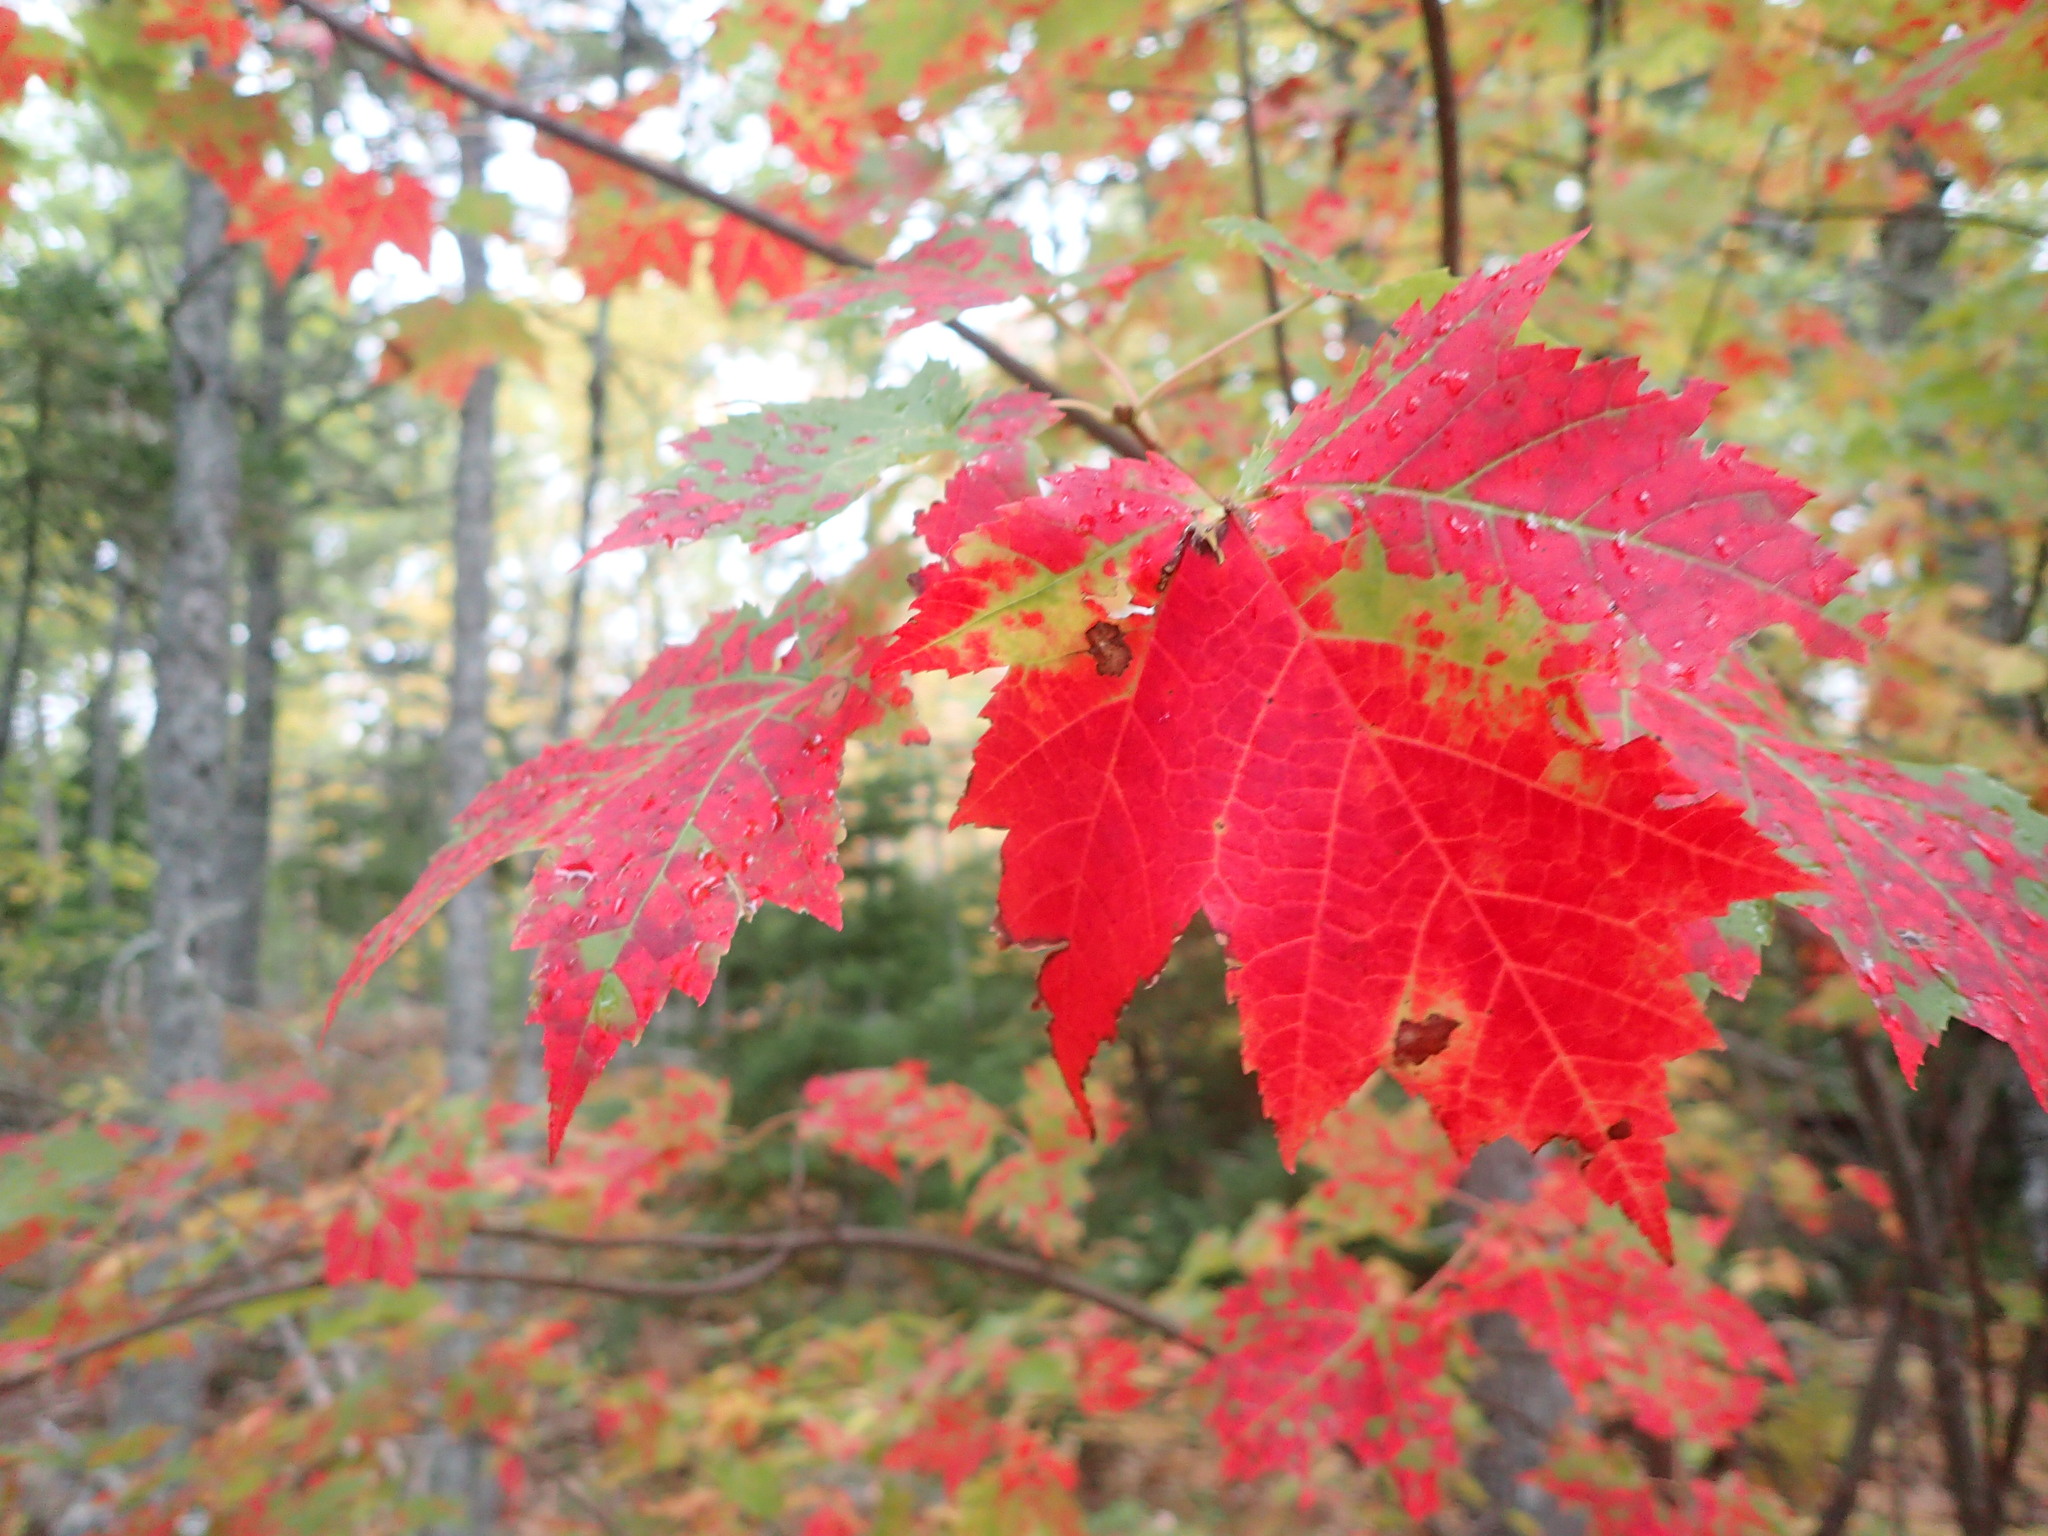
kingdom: Plantae
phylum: Tracheophyta
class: Magnoliopsida
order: Sapindales
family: Sapindaceae
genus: Acer
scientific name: Acer rubrum
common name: Red maple
